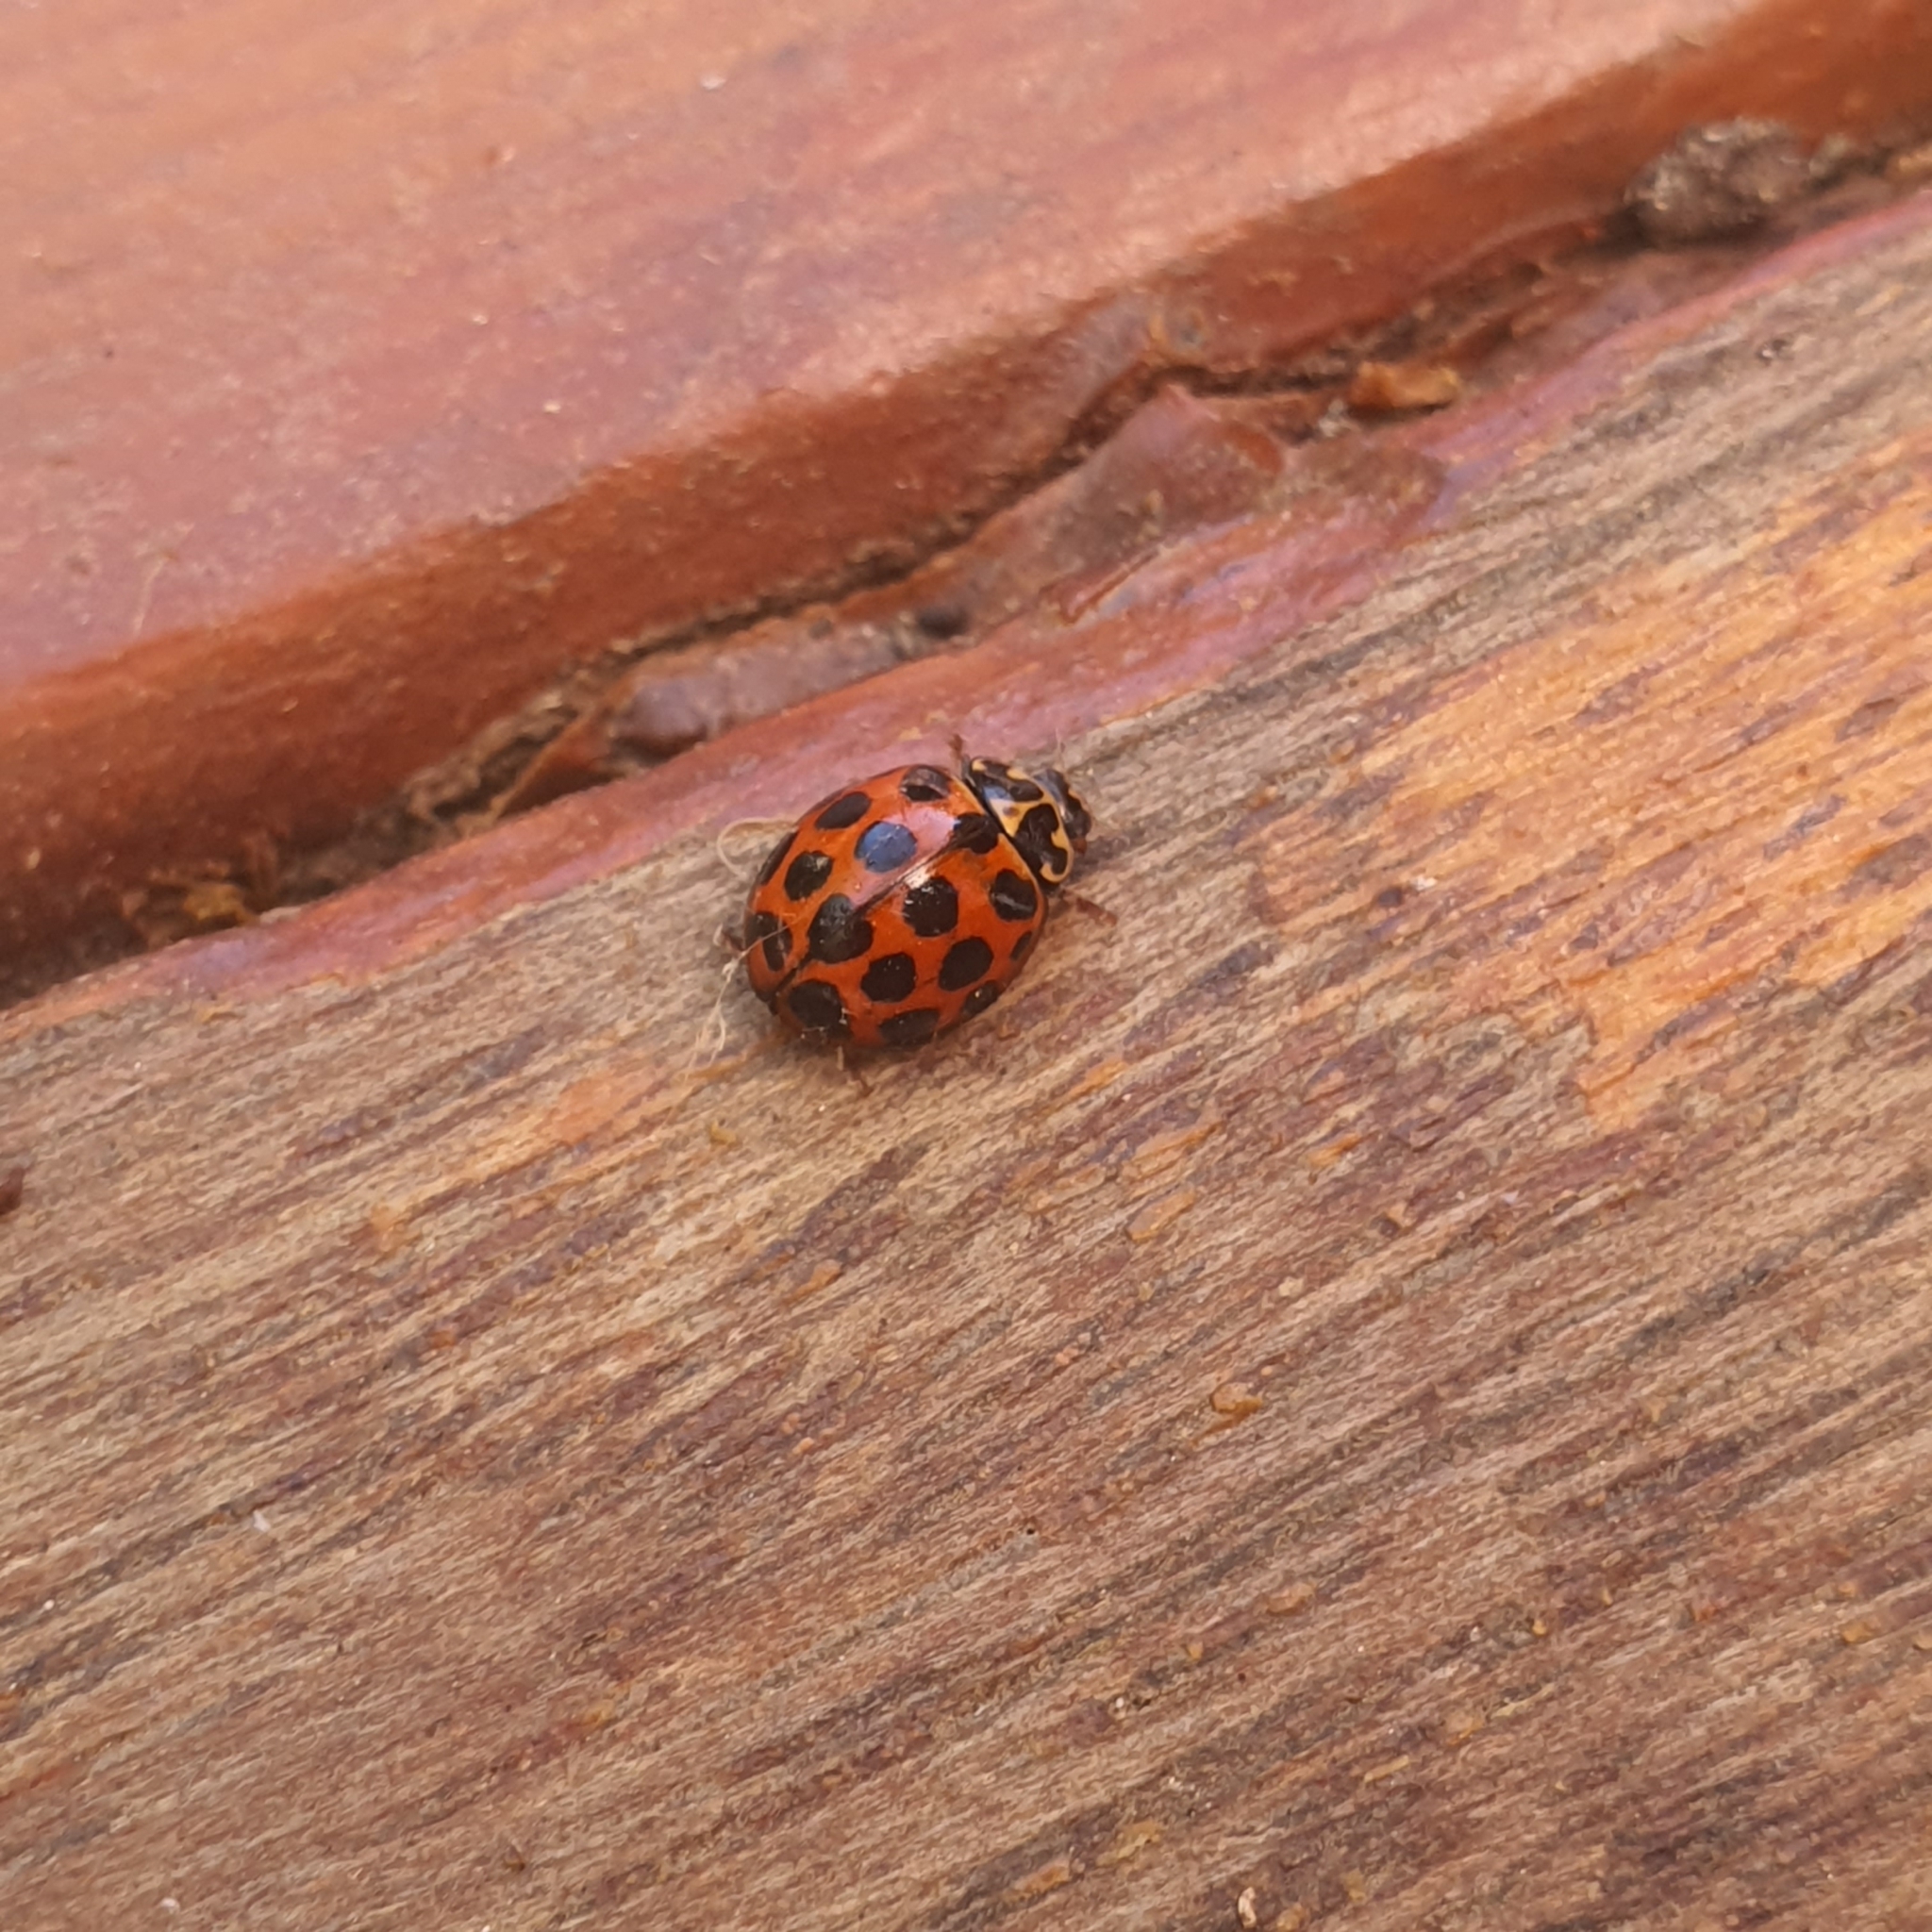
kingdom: Animalia
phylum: Arthropoda
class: Insecta
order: Coleoptera
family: Coccinellidae
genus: Harmonia
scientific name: Harmonia conformis
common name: Common spotted ladybird beetle
